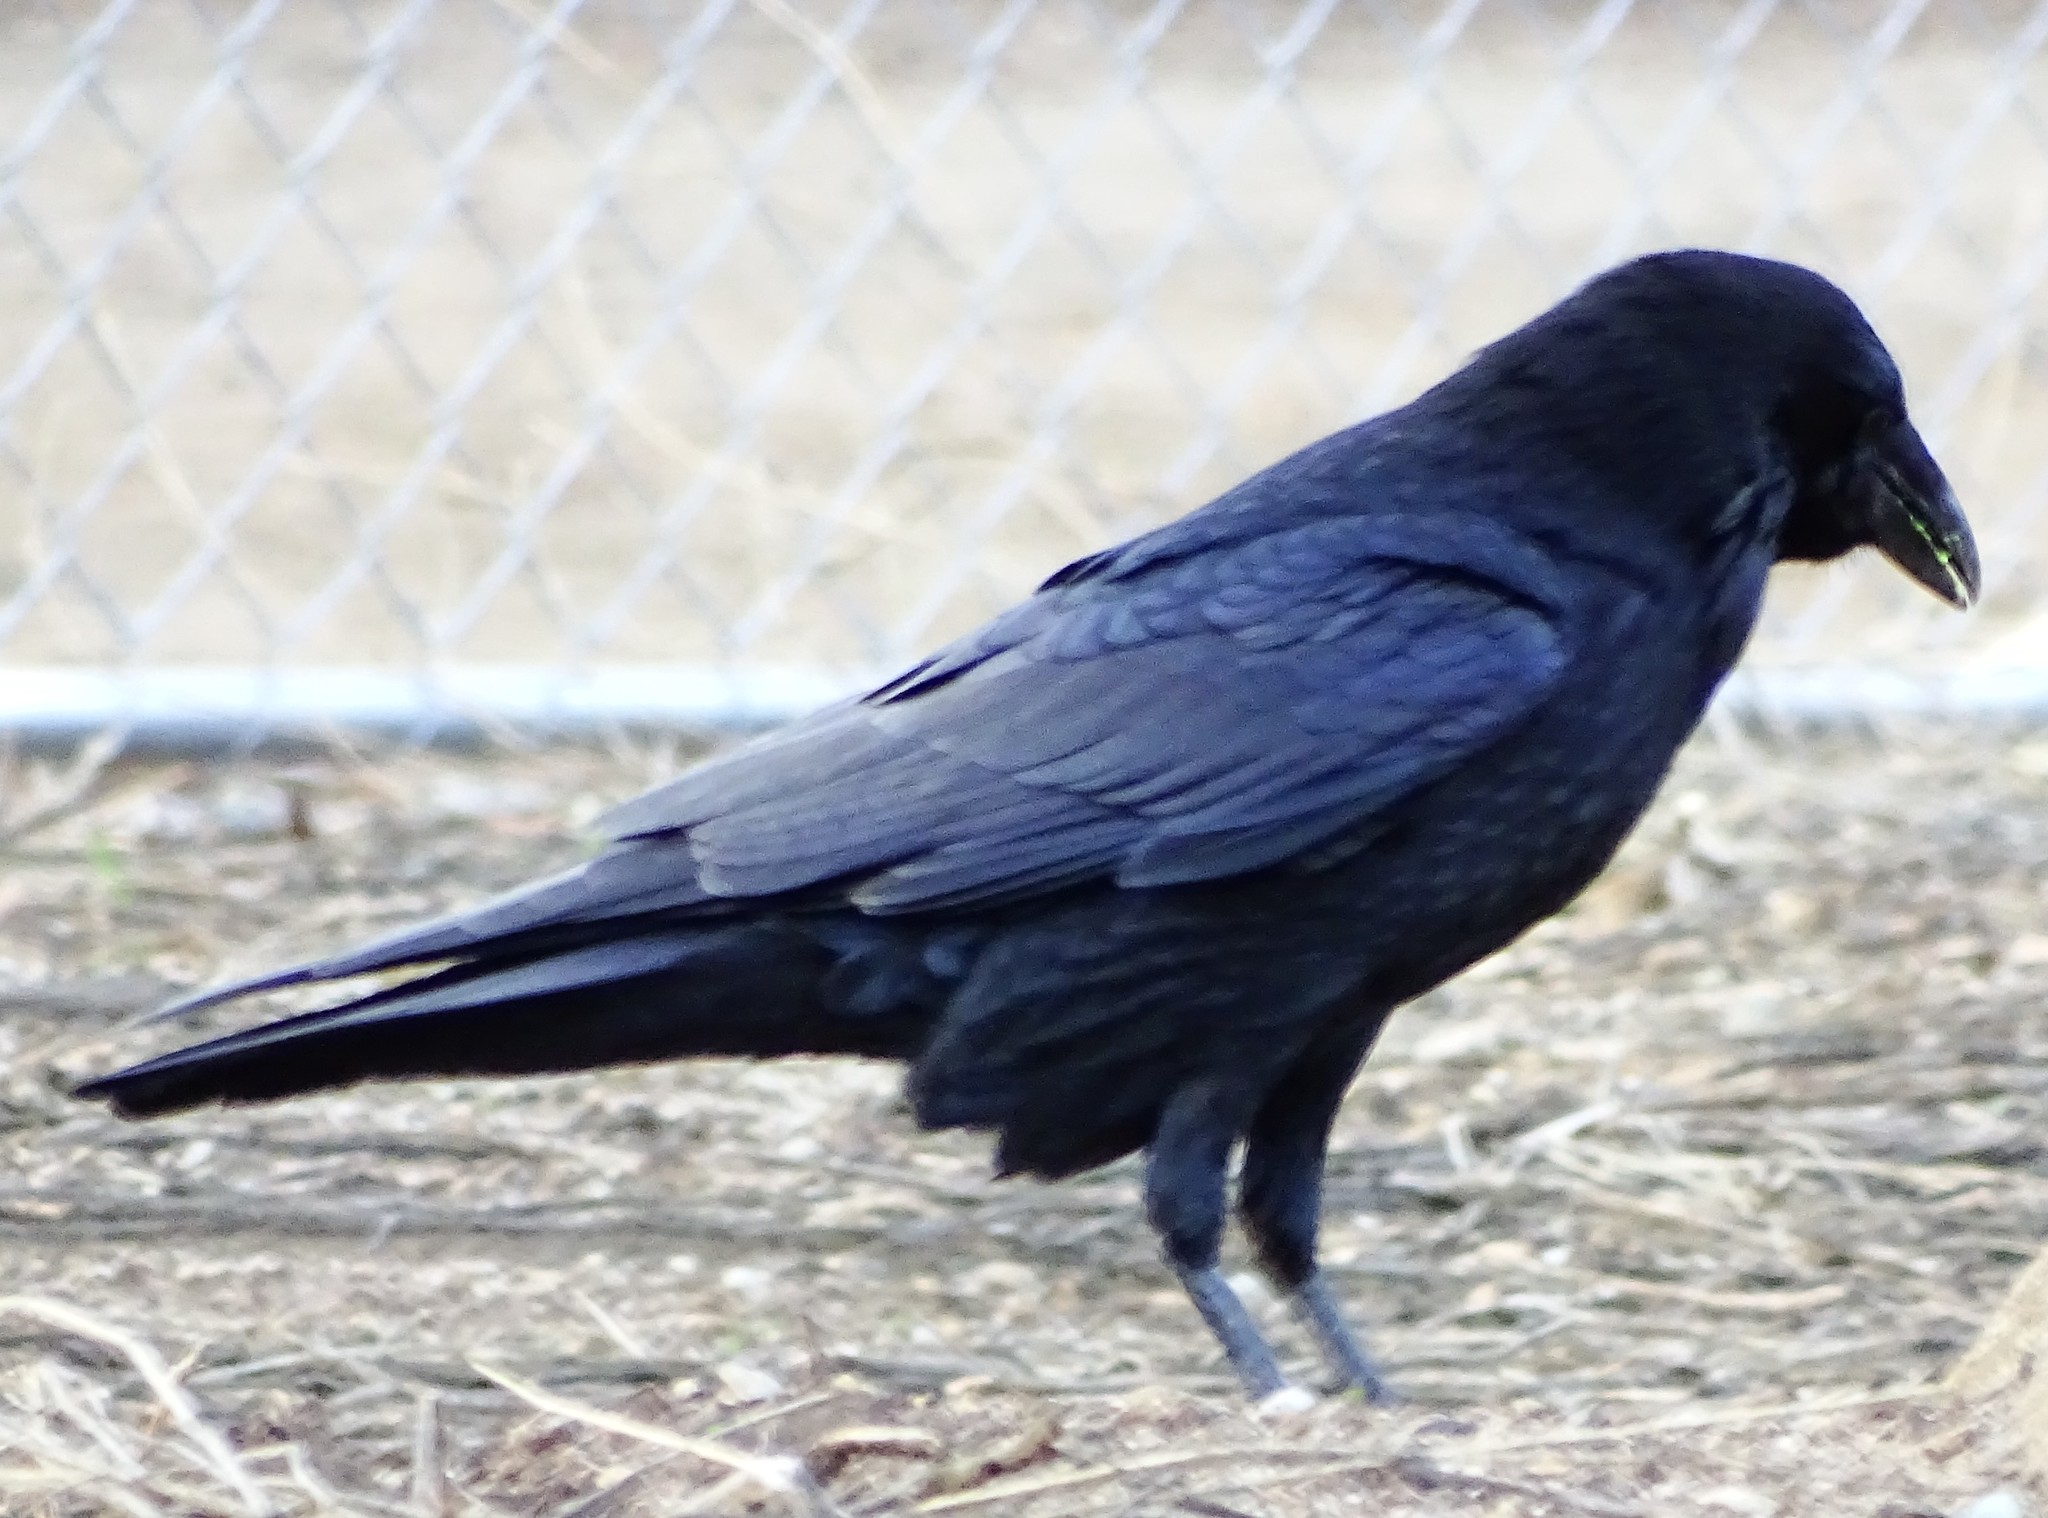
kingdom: Animalia
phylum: Chordata
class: Aves
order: Passeriformes
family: Corvidae
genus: Corvus
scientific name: Corvus brachyrhynchos
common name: American crow
